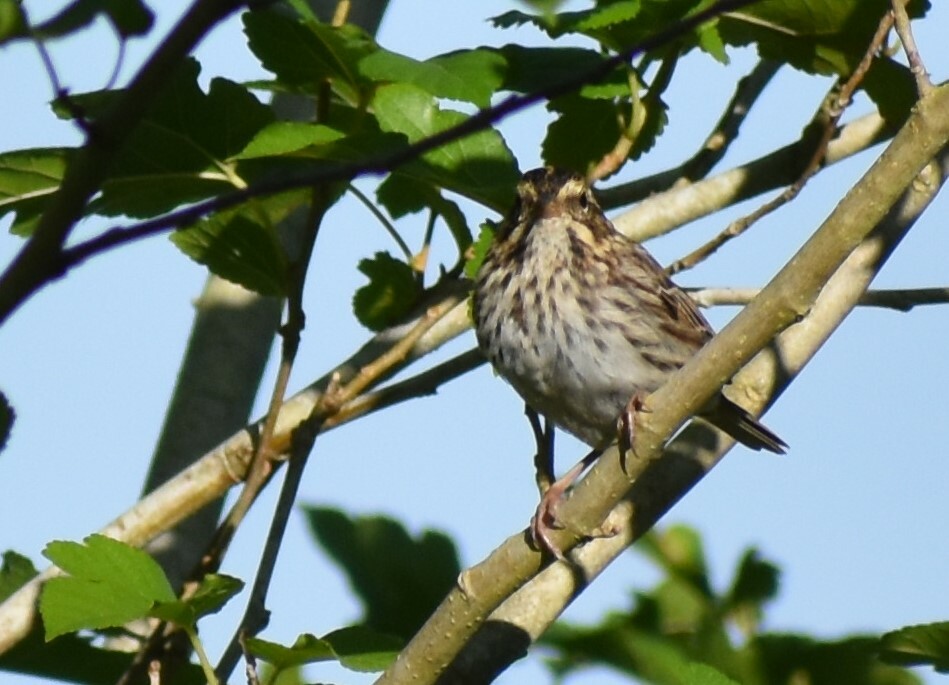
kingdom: Animalia
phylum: Chordata
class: Aves
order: Passeriformes
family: Passerellidae
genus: Passerculus
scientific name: Passerculus sandwichensis
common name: Savannah sparrow
